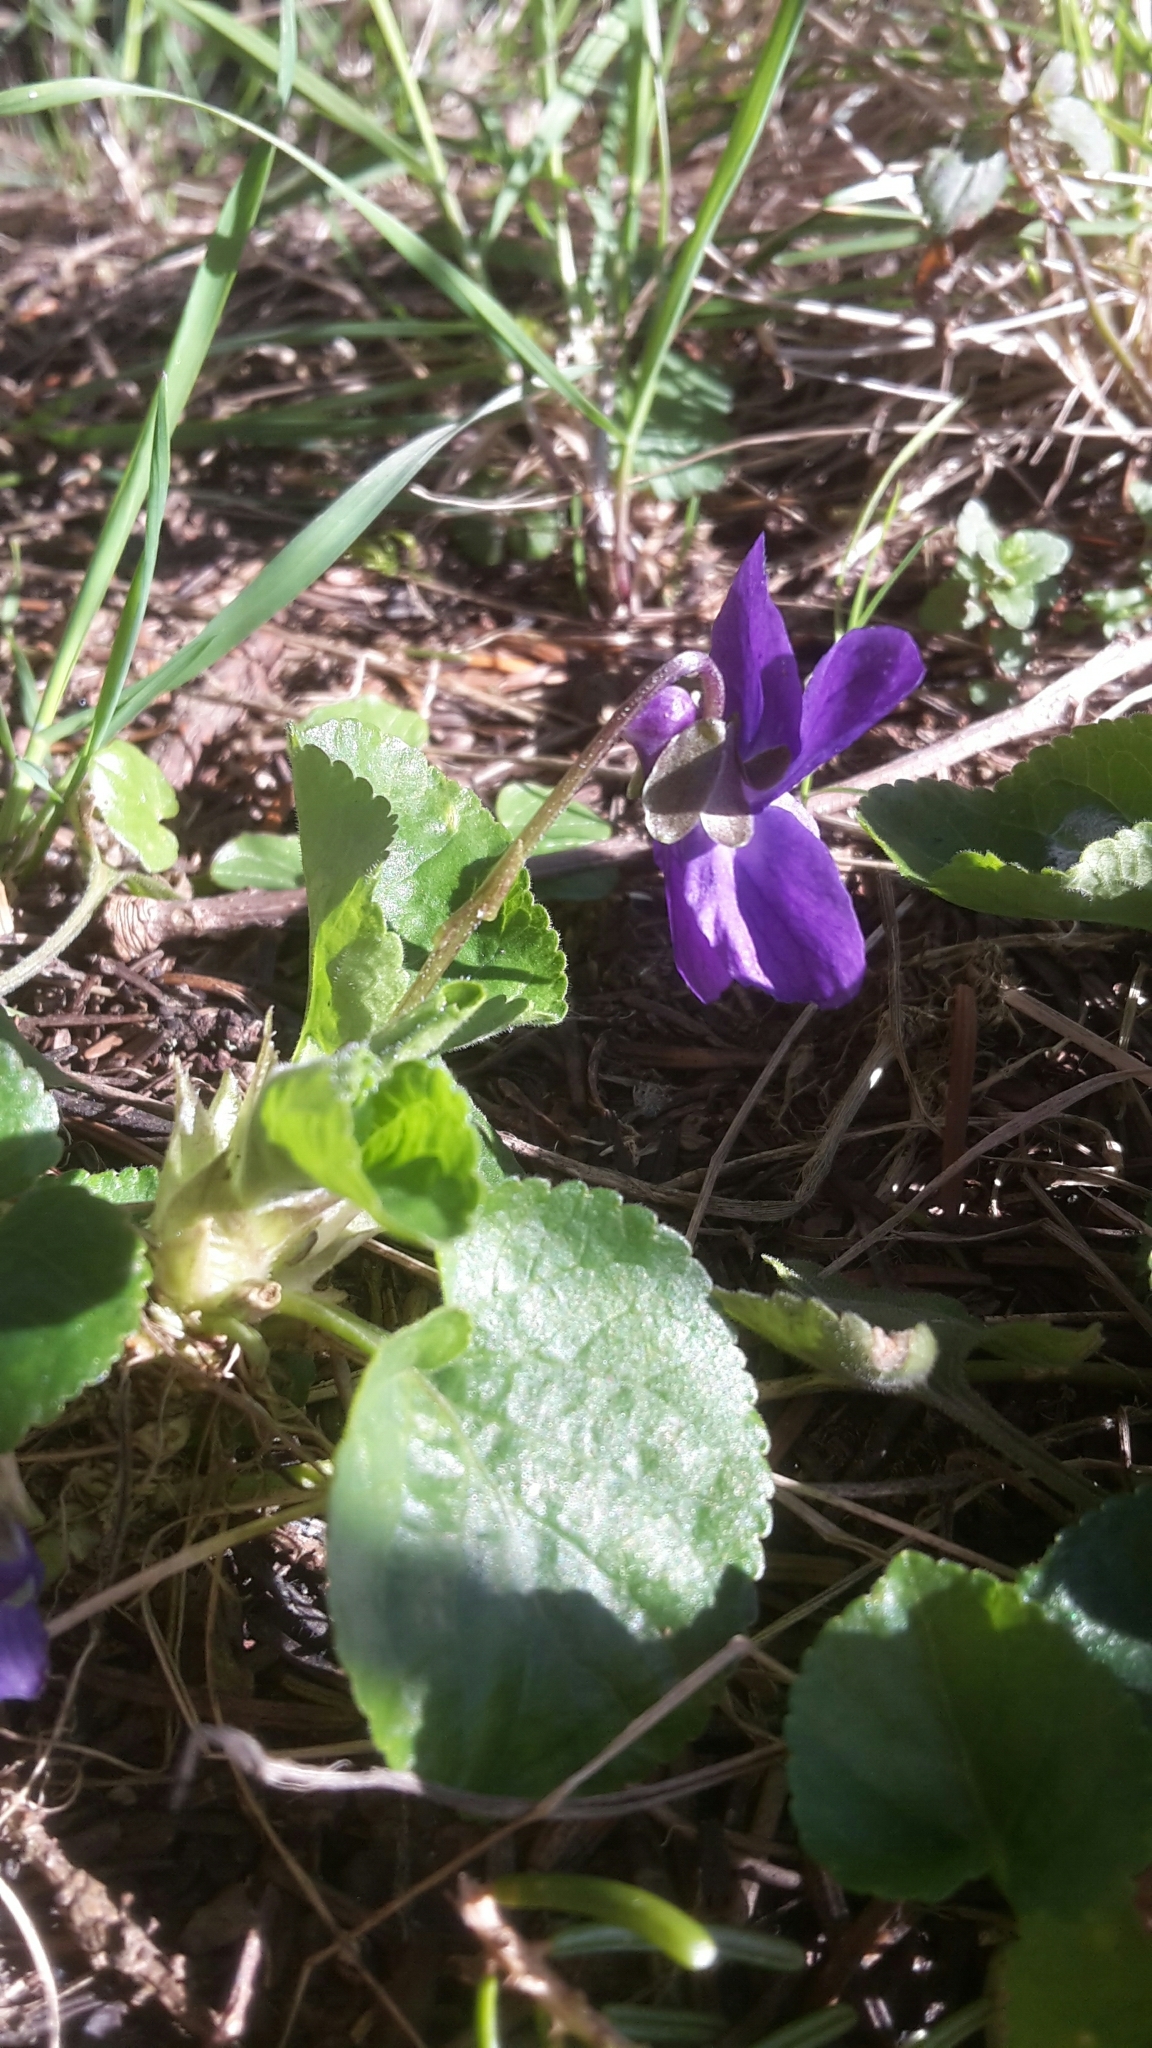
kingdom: Plantae
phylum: Tracheophyta
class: Magnoliopsida
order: Malpighiales
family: Violaceae
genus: Viola
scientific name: Viola odorata
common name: Sweet violet
